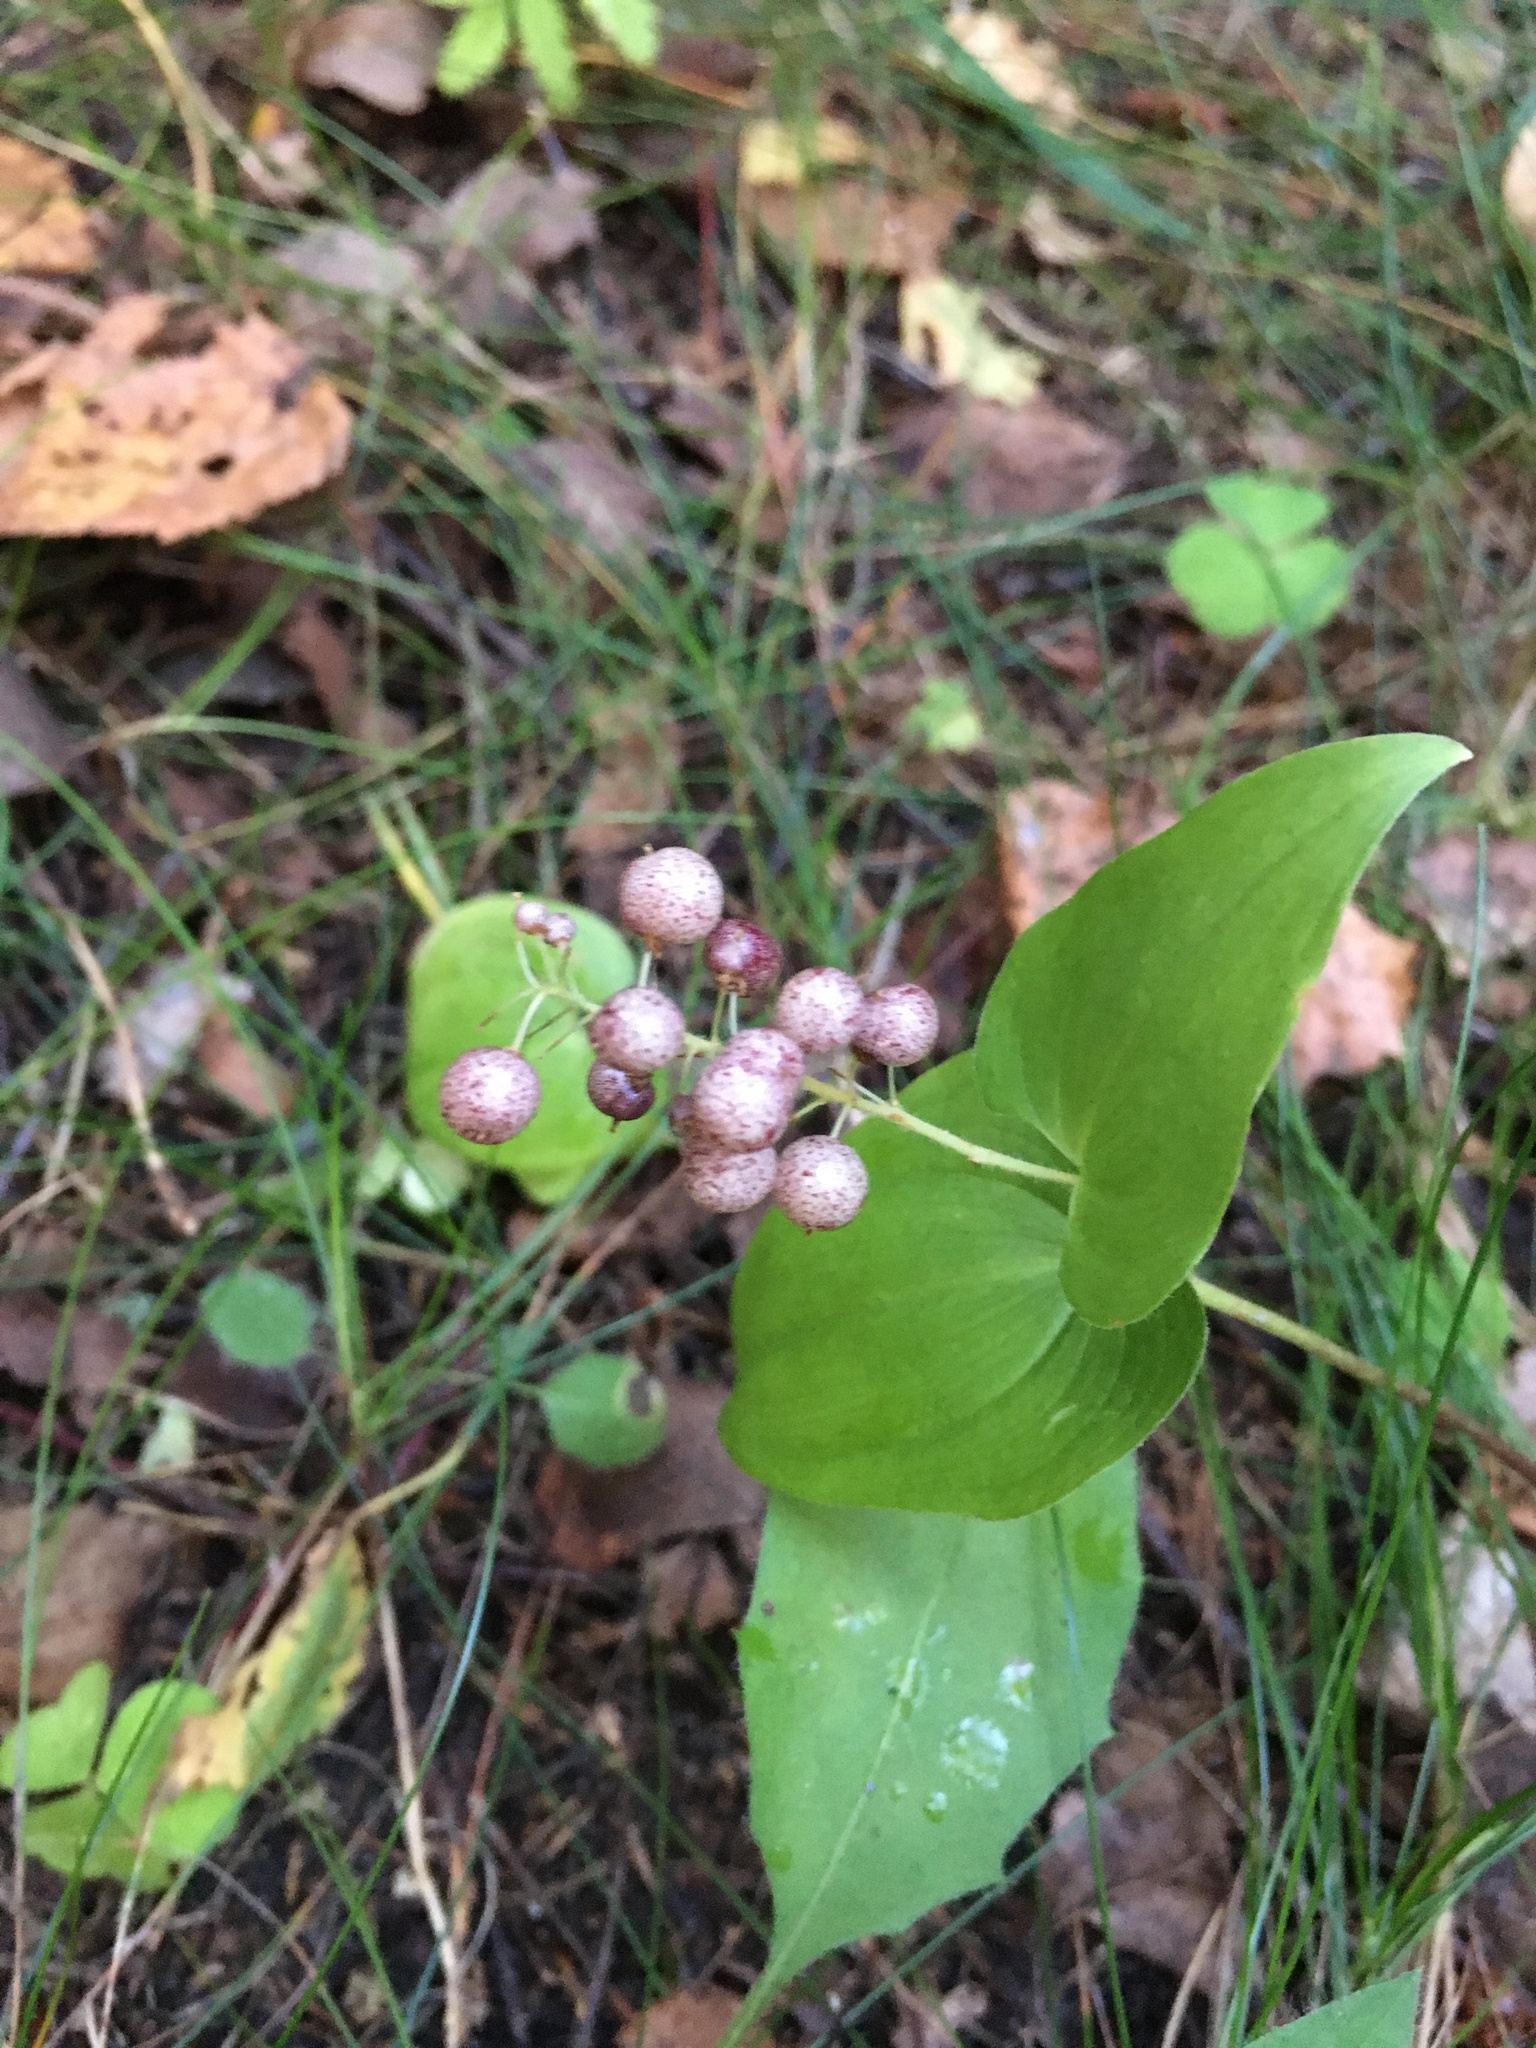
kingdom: Plantae
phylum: Tracheophyta
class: Liliopsida
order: Asparagales
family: Asparagaceae
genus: Maianthemum
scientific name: Maianthemum bifolium
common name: May lily
